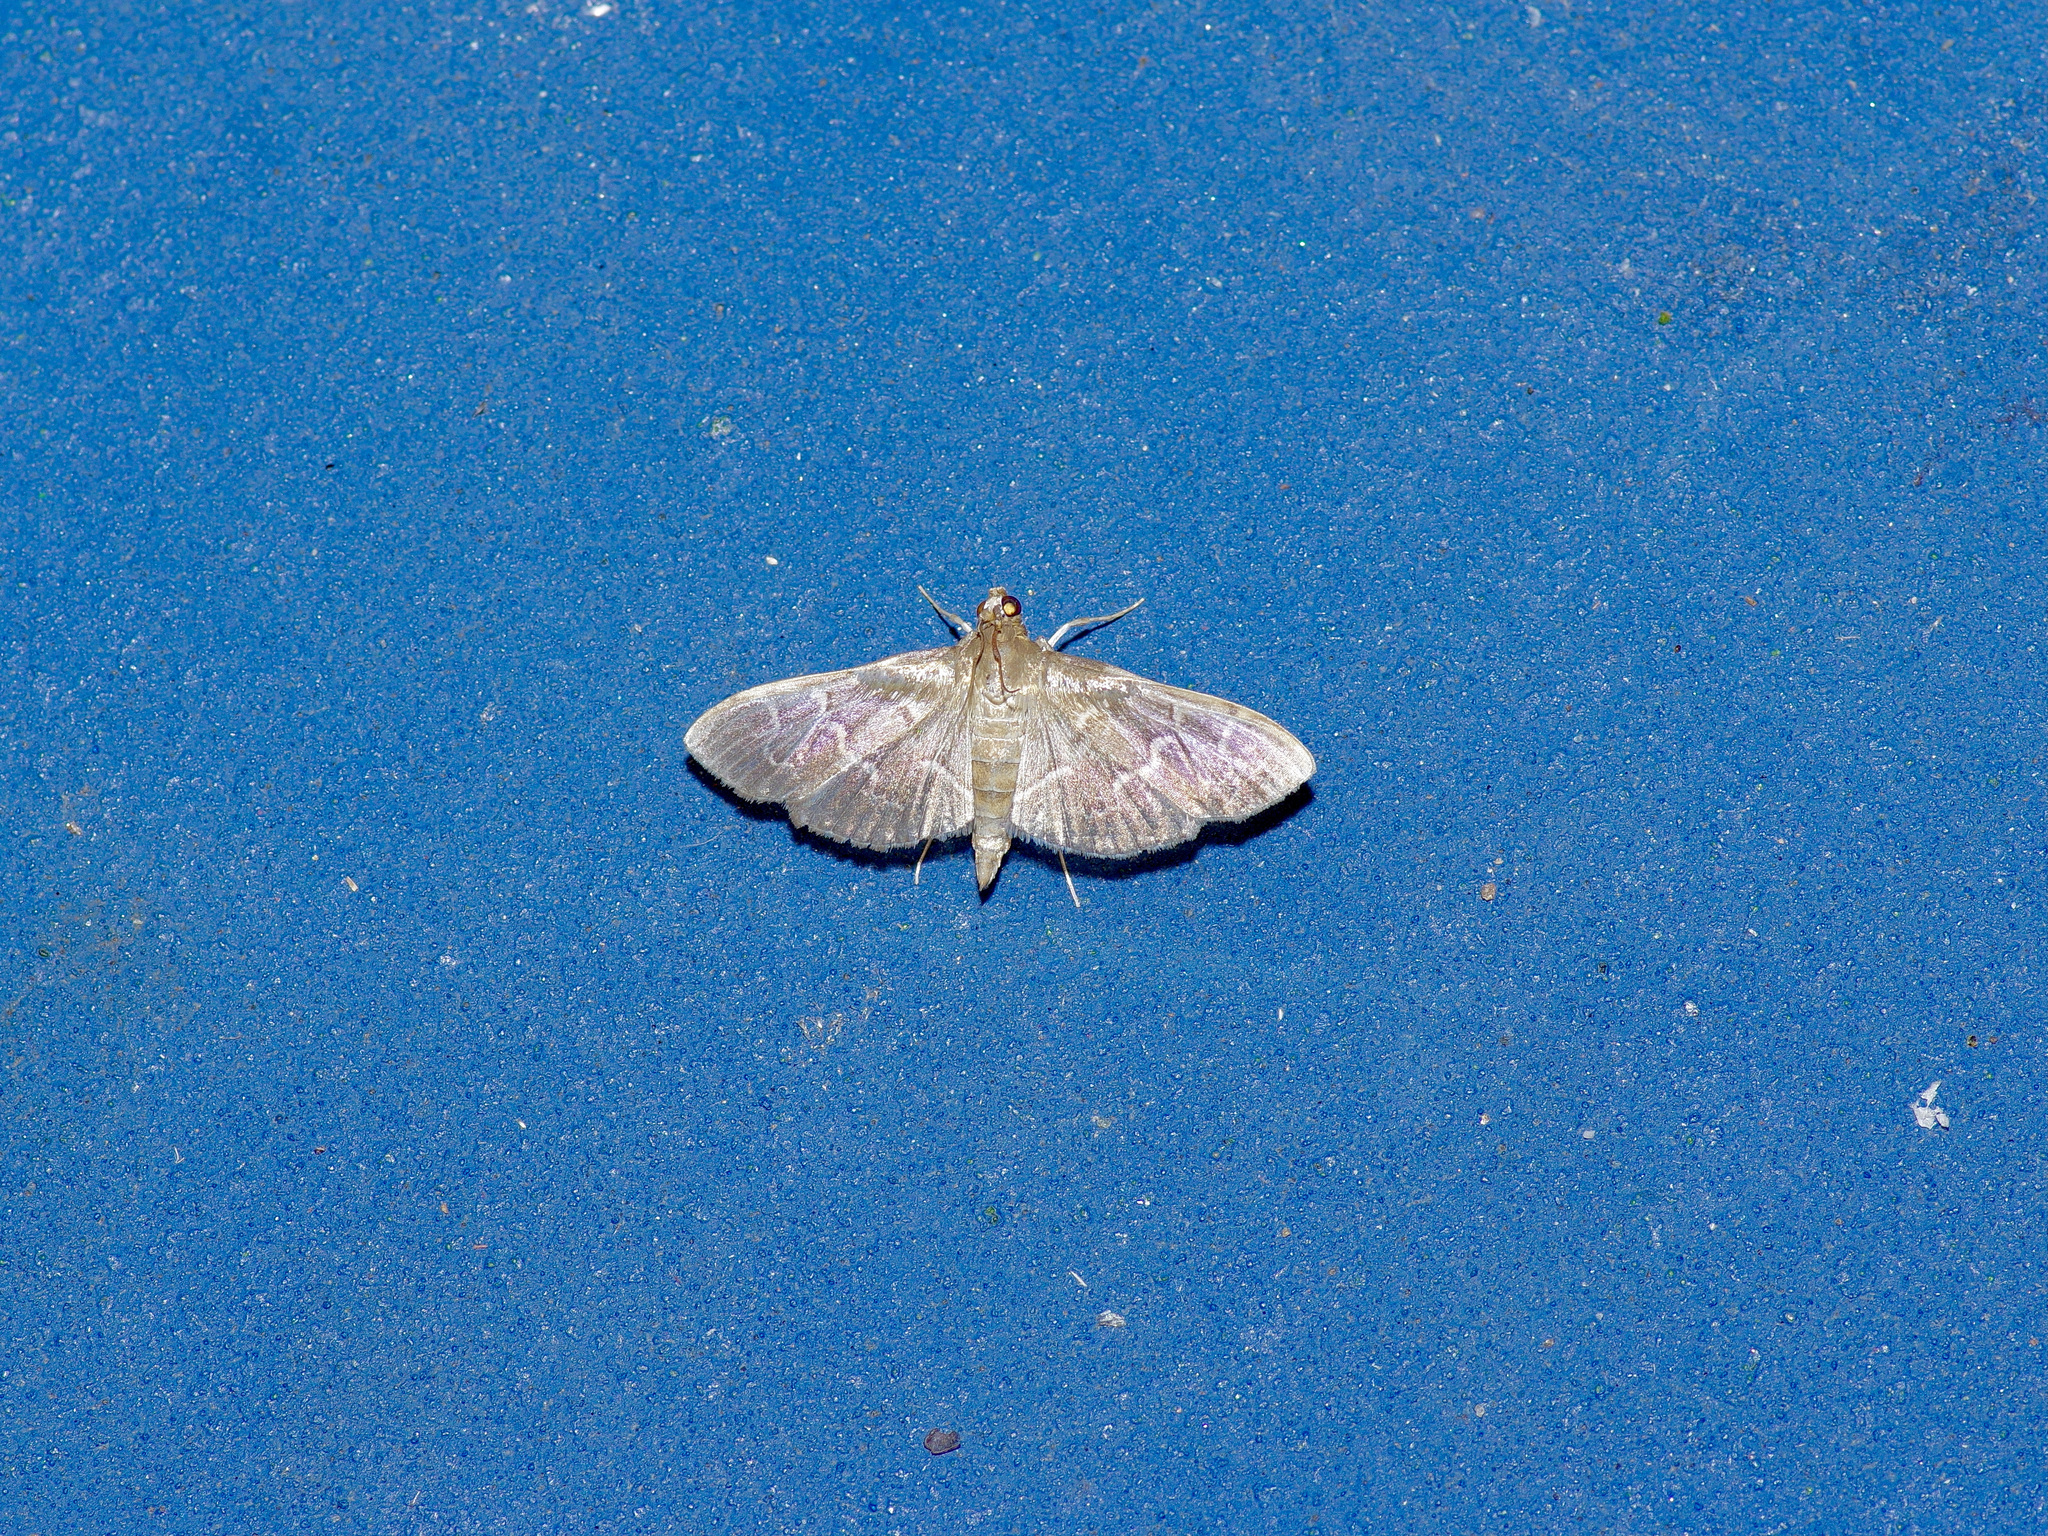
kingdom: Animalia
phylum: Arthropoda
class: Insecta
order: Lepidoptera
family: Crambidae
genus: Pilocrocis
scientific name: Pilocrocis ramentalis
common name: Scraped pilocrocis
